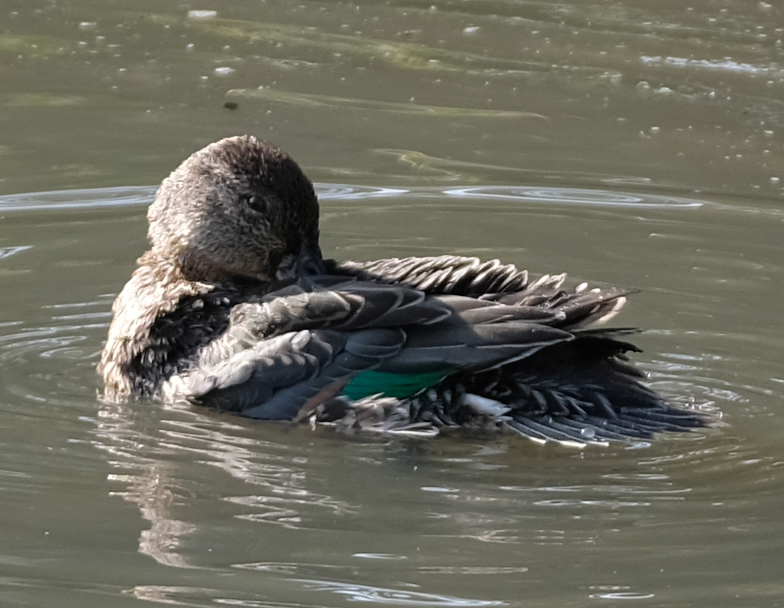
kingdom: Animalia
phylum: Chordata
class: Aves
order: Anseriformes
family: Anatidae
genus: Anas
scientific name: Anas crecca
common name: Eurasian teal
